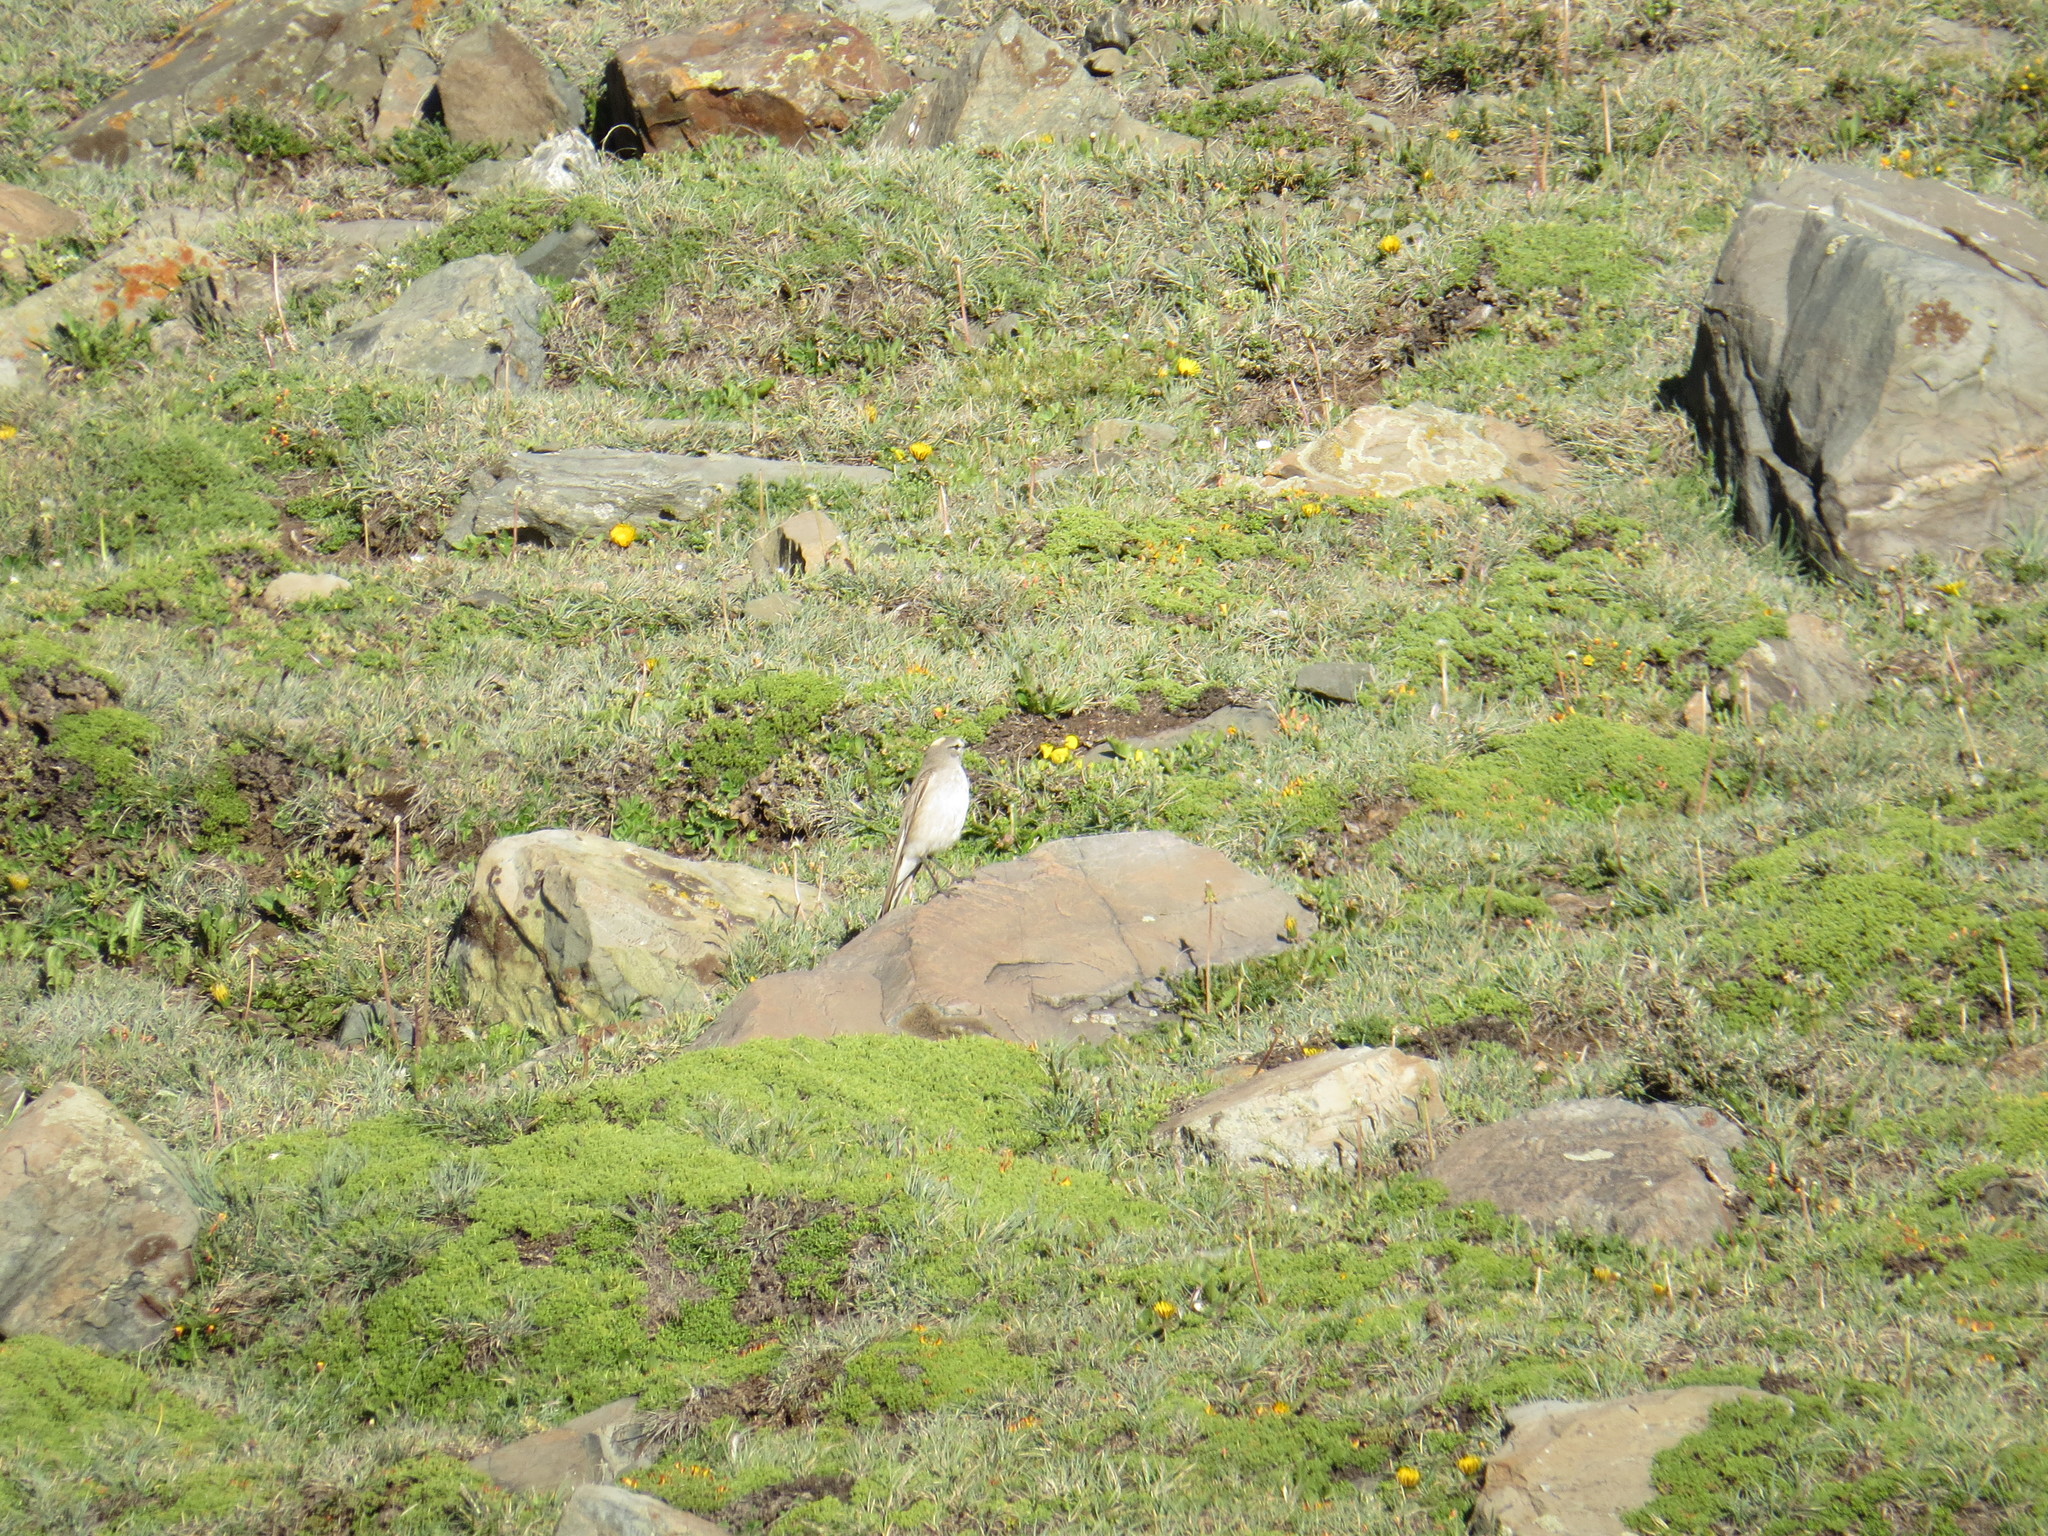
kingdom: Animalia
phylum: Chordata
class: Aves
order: Passeriformes
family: Tyrannidae
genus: Muscisaxicola
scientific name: Muscisaxicola flavinucha
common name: Ochre-naped ground tyrant
